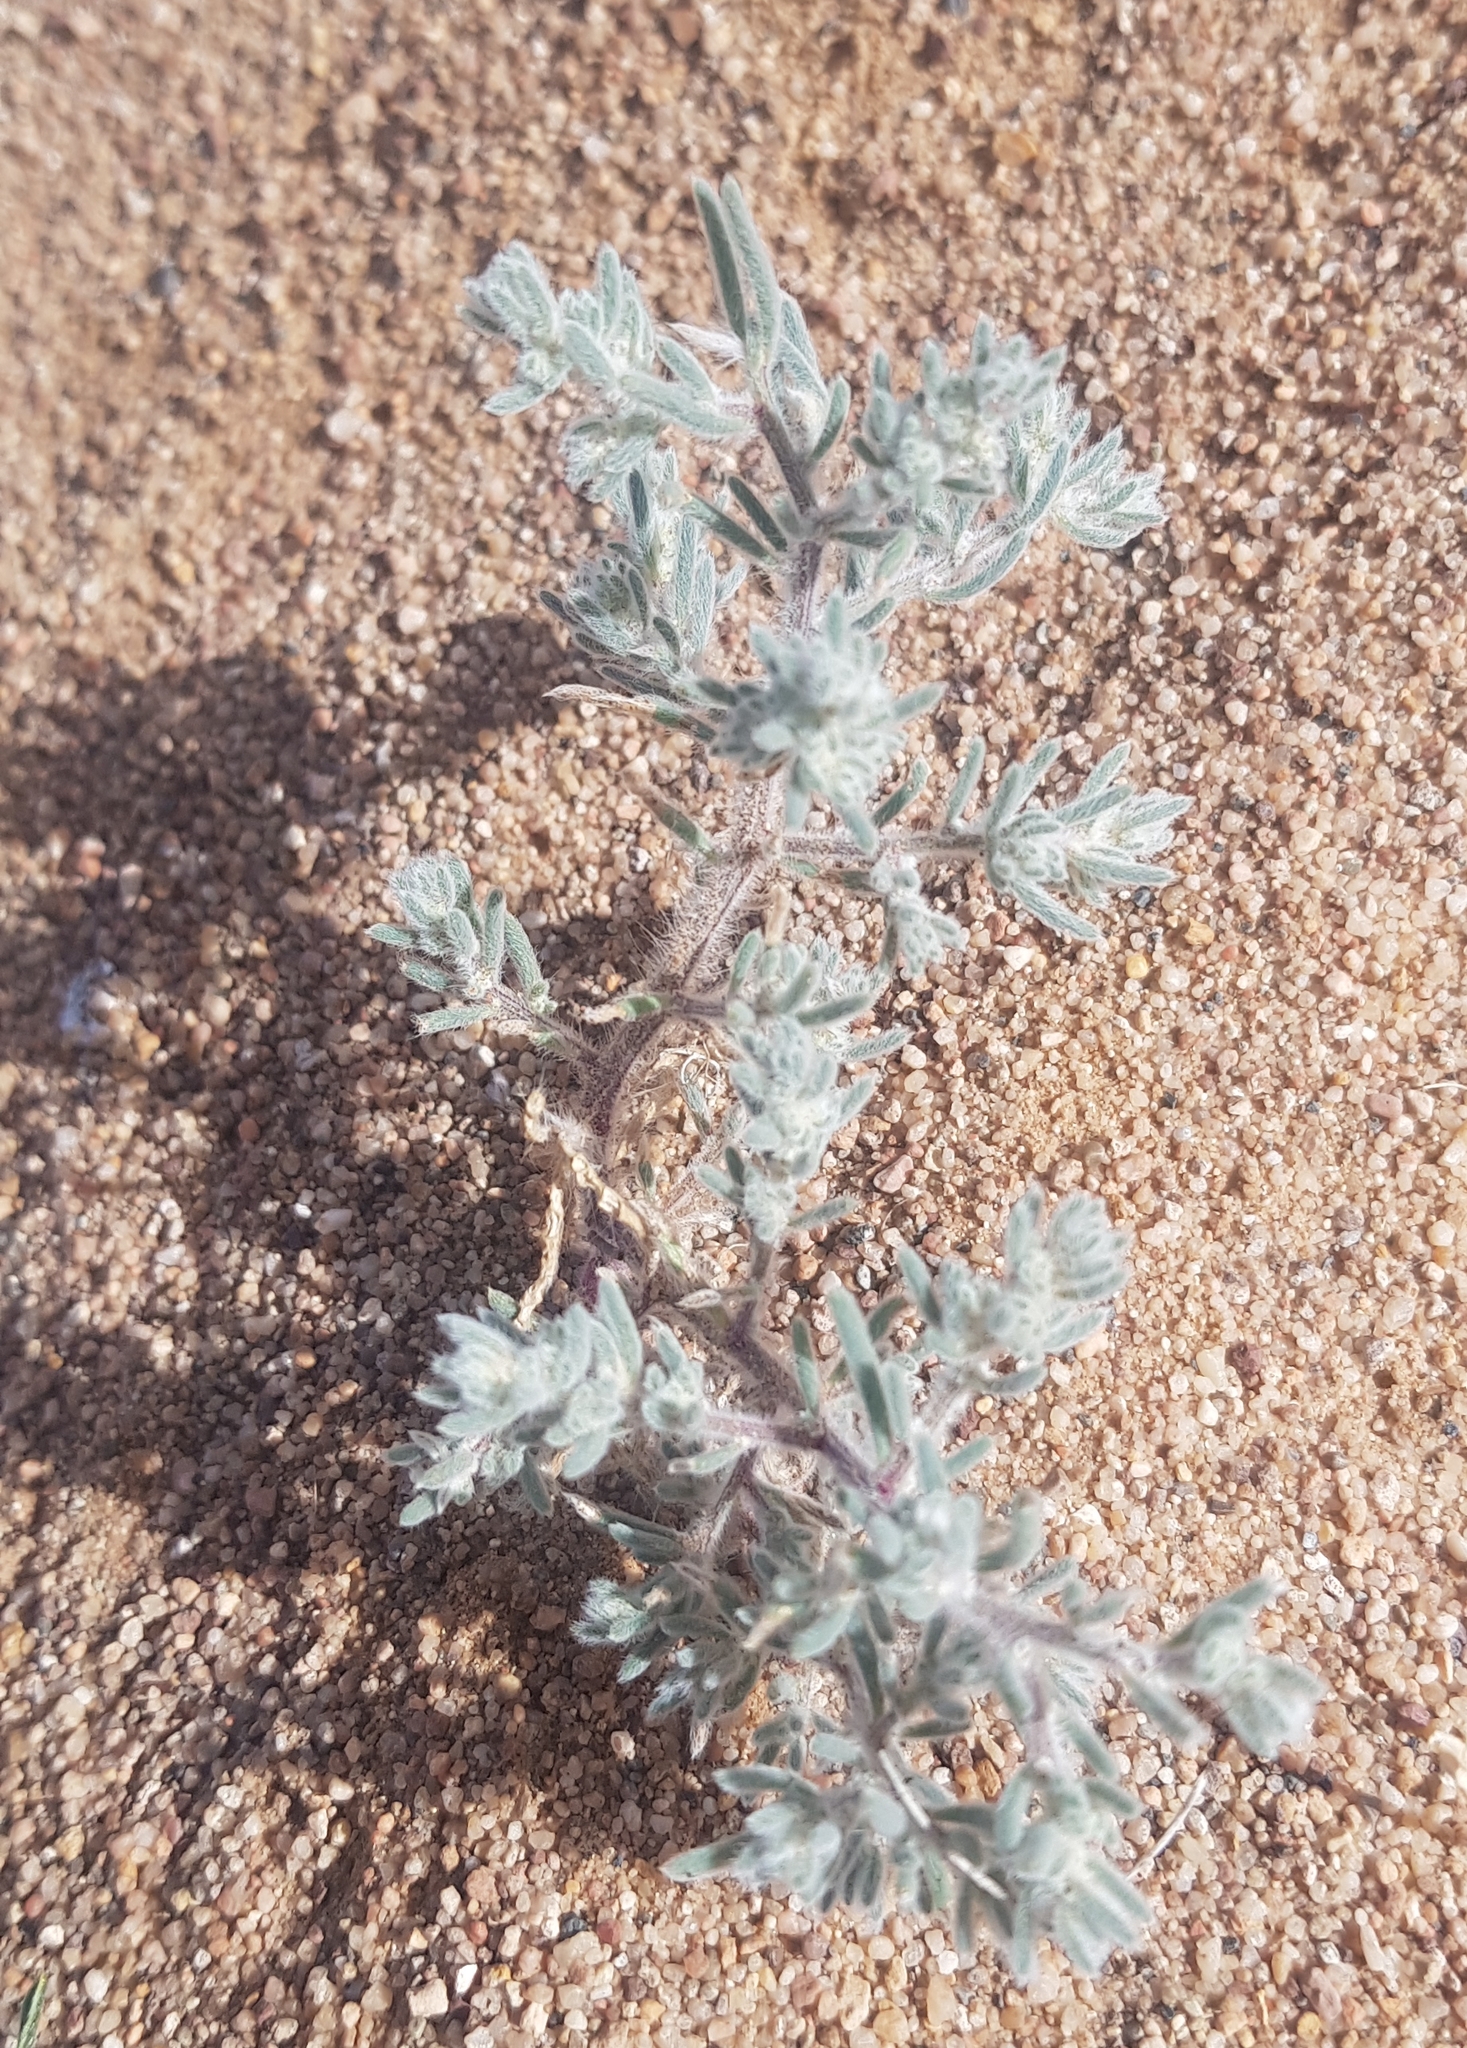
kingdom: Plantae
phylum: Tracheophyta
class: Magnoliopsida
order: Caryophyllales
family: Amaranthaceae
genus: Grubovia
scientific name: Grubovia dasyphylla
